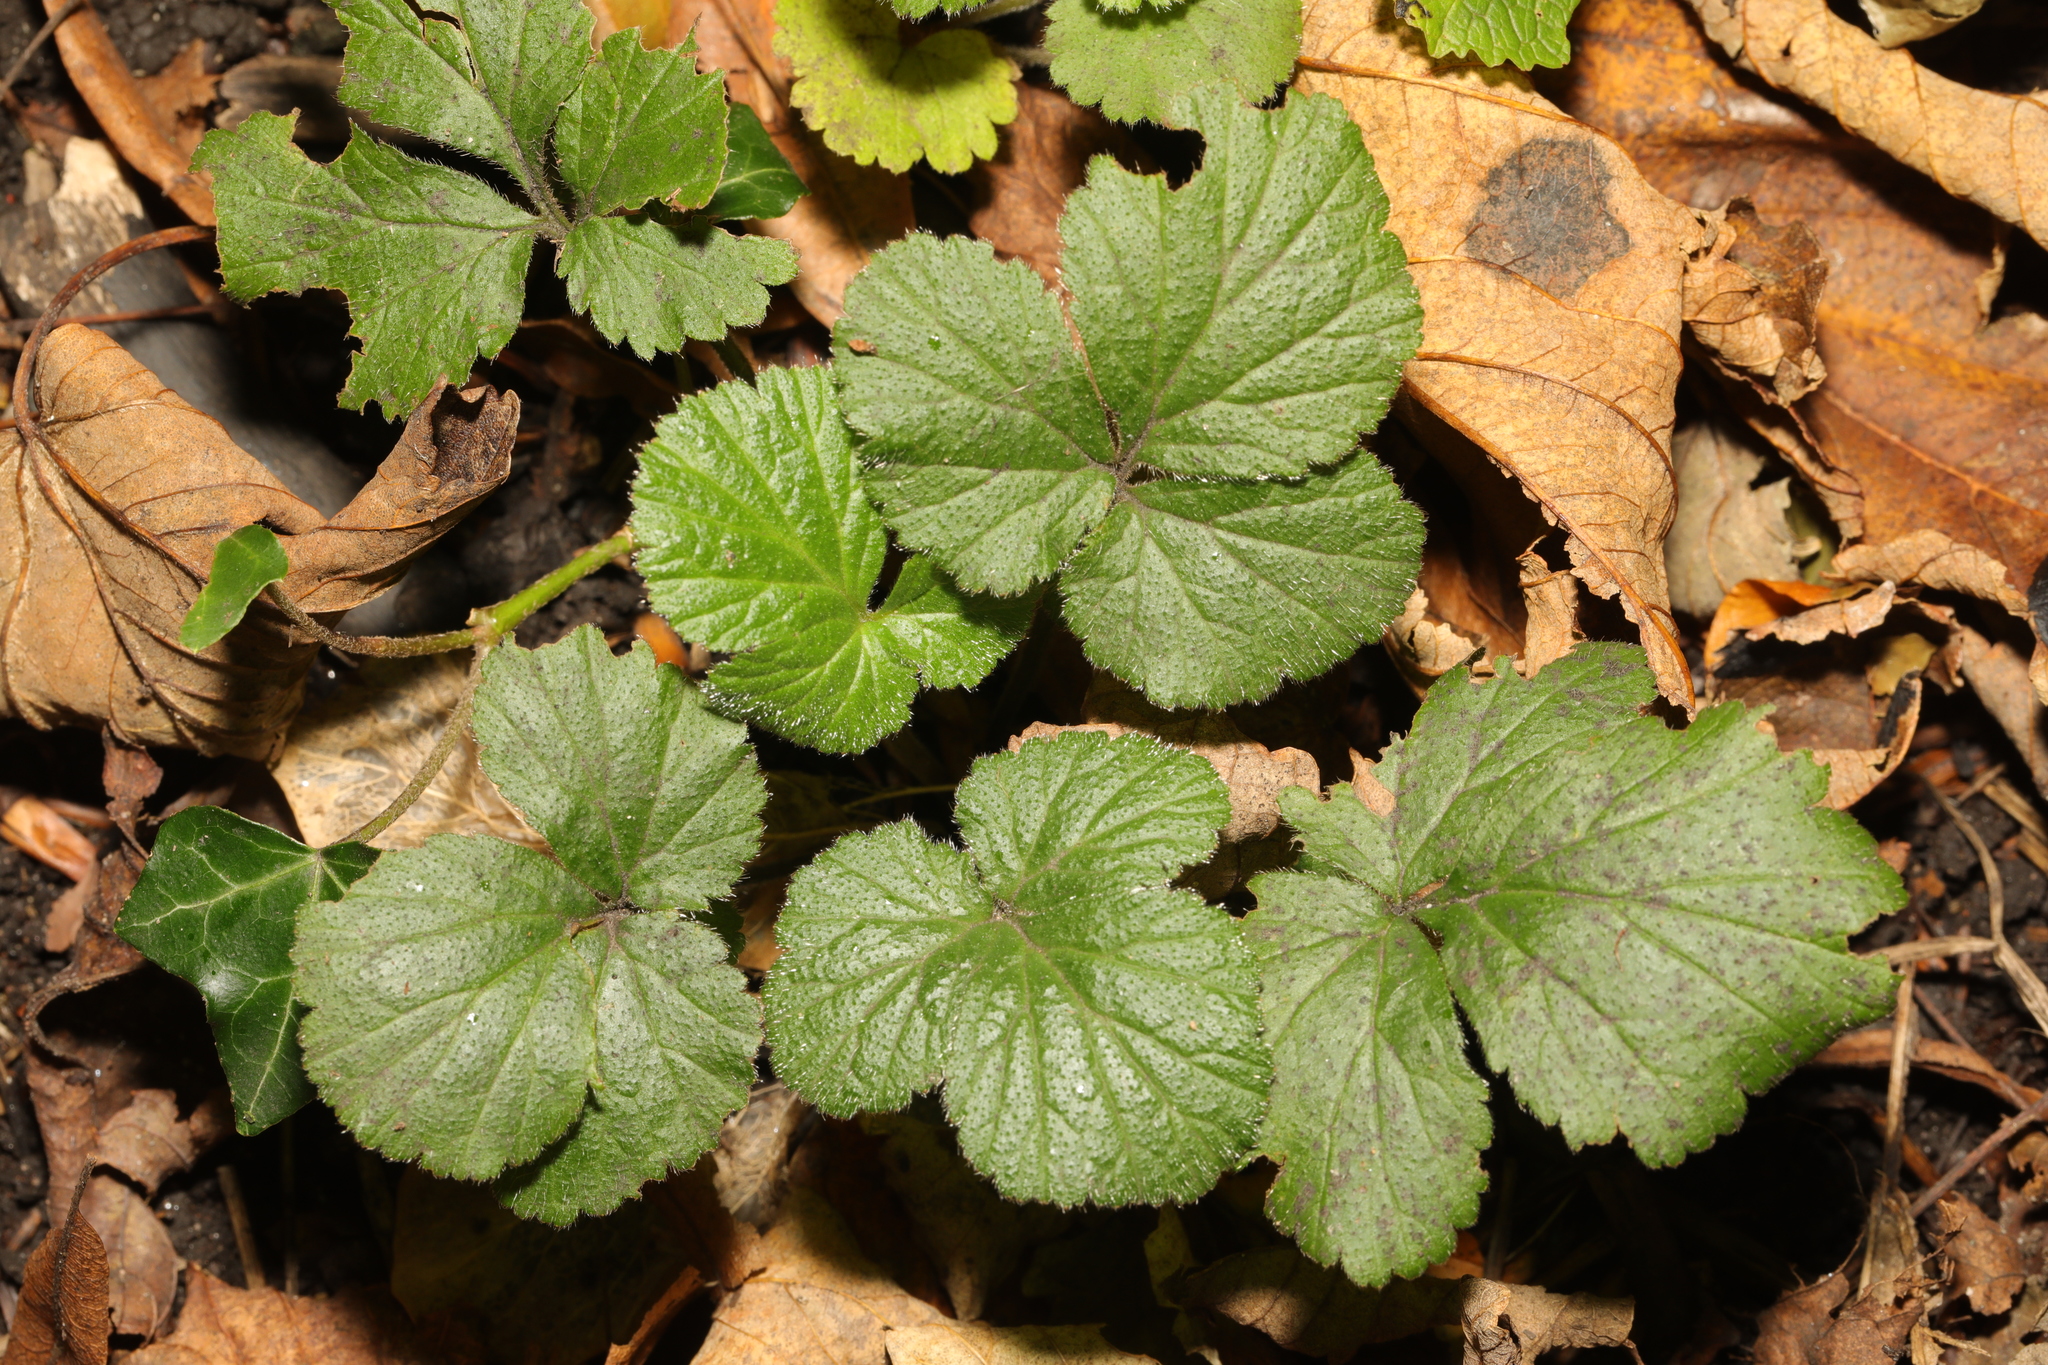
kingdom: Plantae
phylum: Tracheophyta
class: Magnoliopsida
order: Rosales
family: Rosaceae
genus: Geum
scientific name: Geum urbanum
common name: Wood avens
